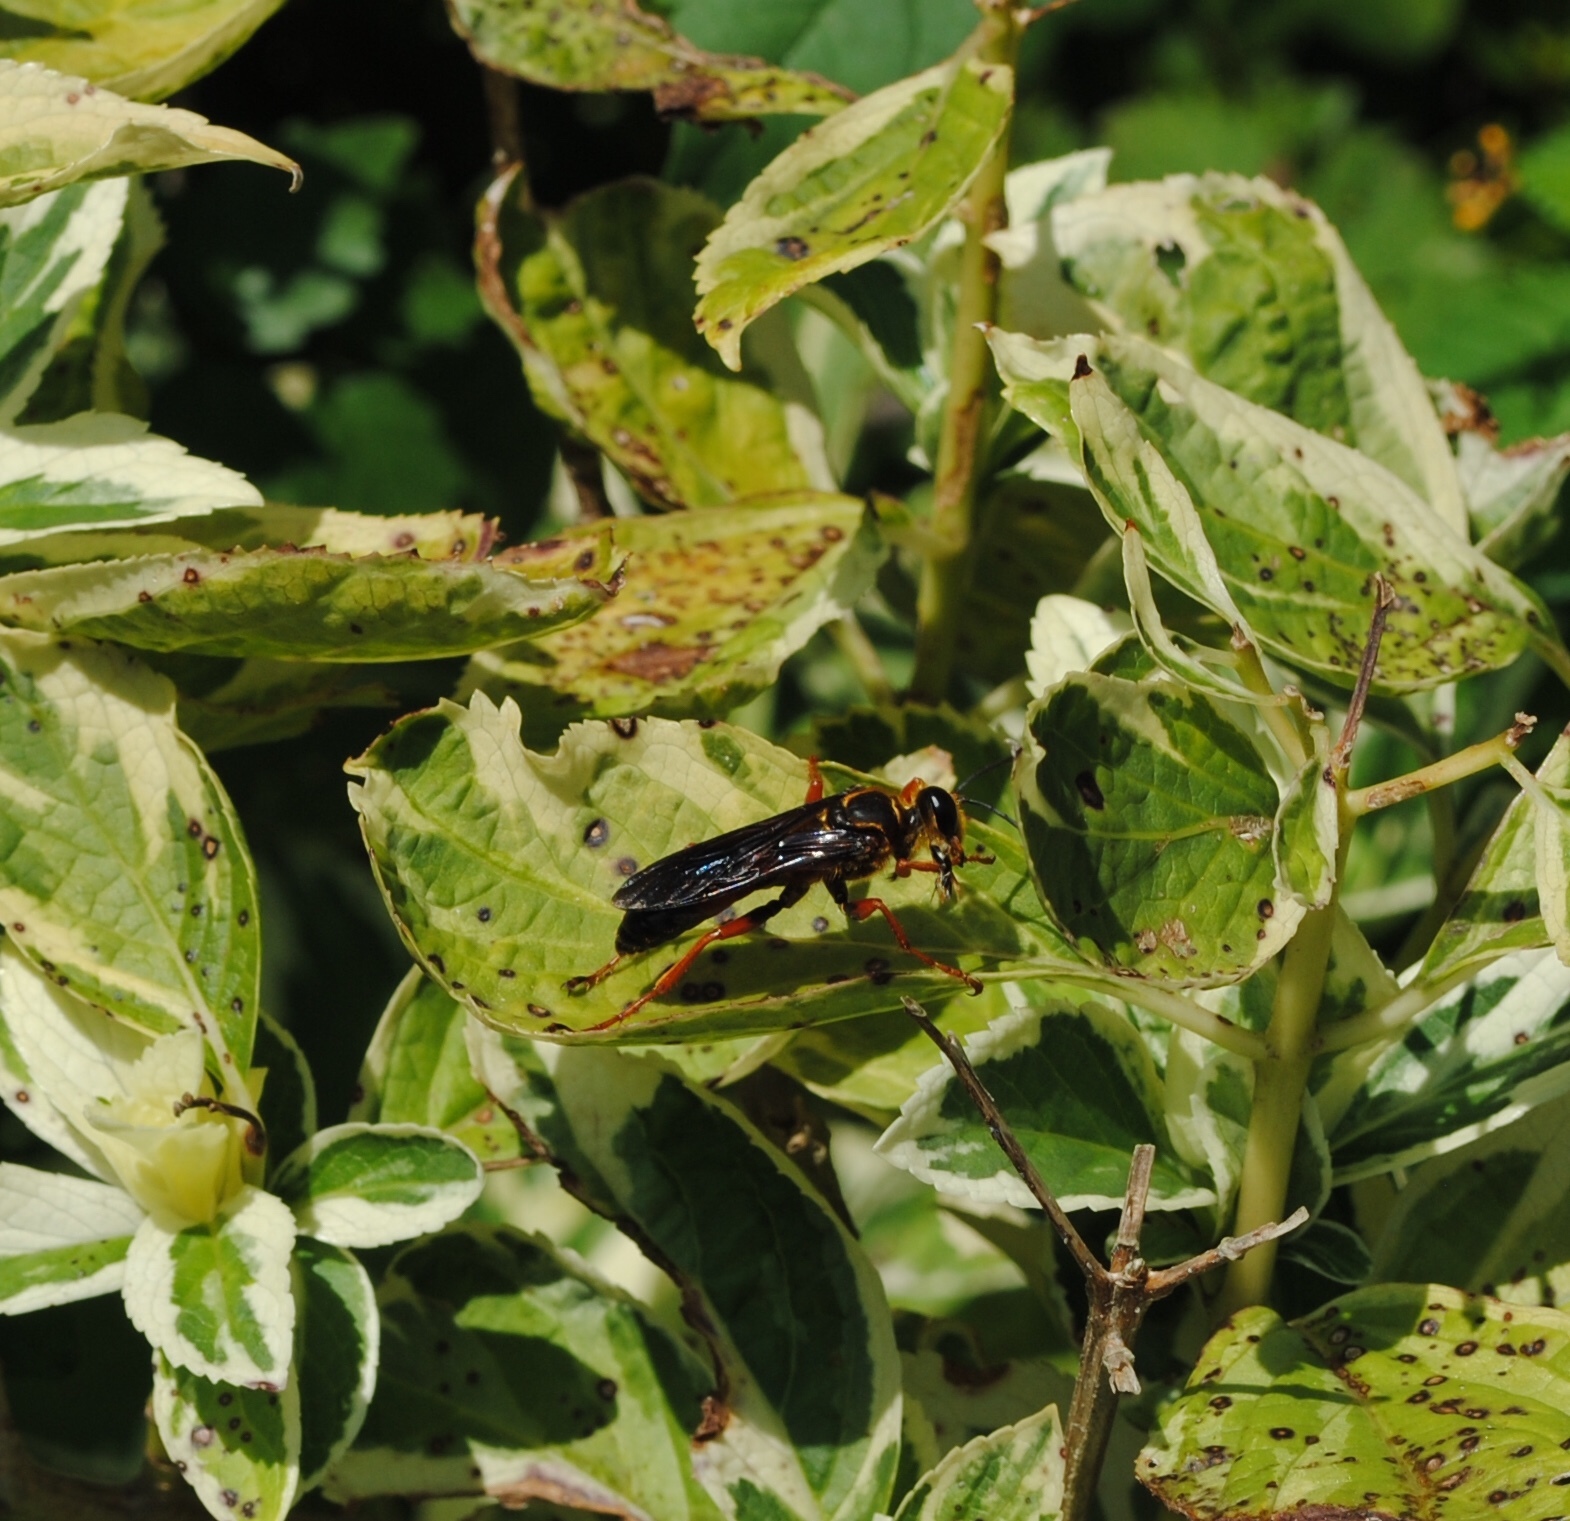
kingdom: Animalia
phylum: Arthropoda
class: Insecta
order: Hymenoptera
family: Sphecidae
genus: Sphex
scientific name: Sphex flavovestitus
